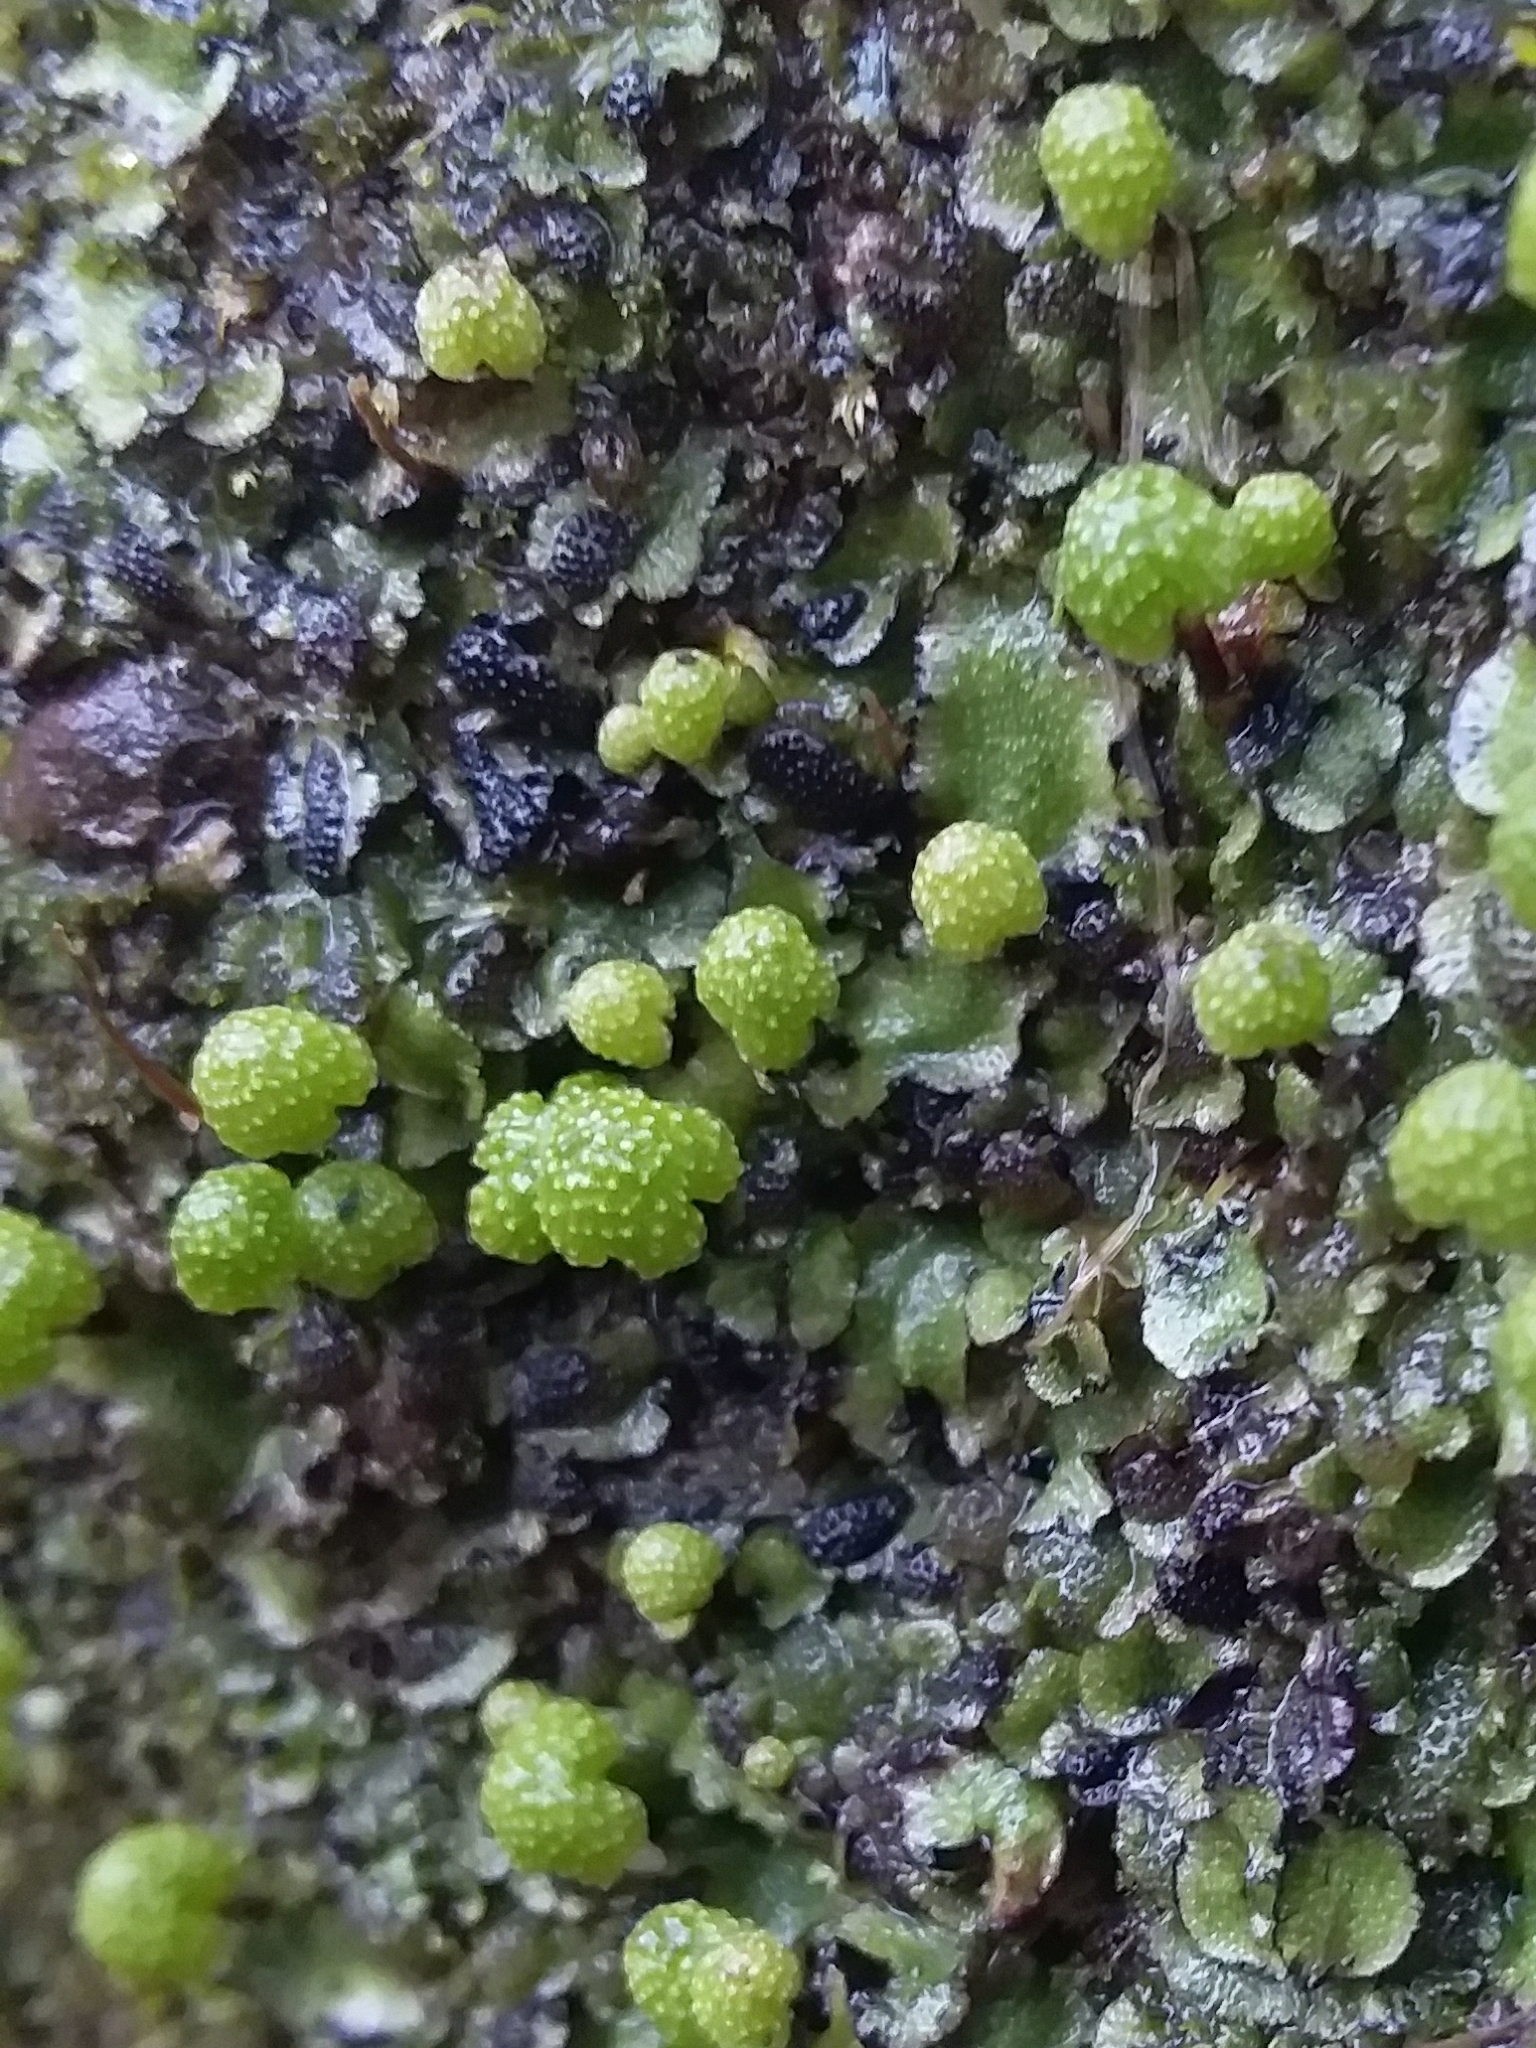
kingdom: Plantae
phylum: Marchantiophyta
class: Marchantiopsida
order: Marchantiales
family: Aytoniaceae
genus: Asterella
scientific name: Asterella drummondii
